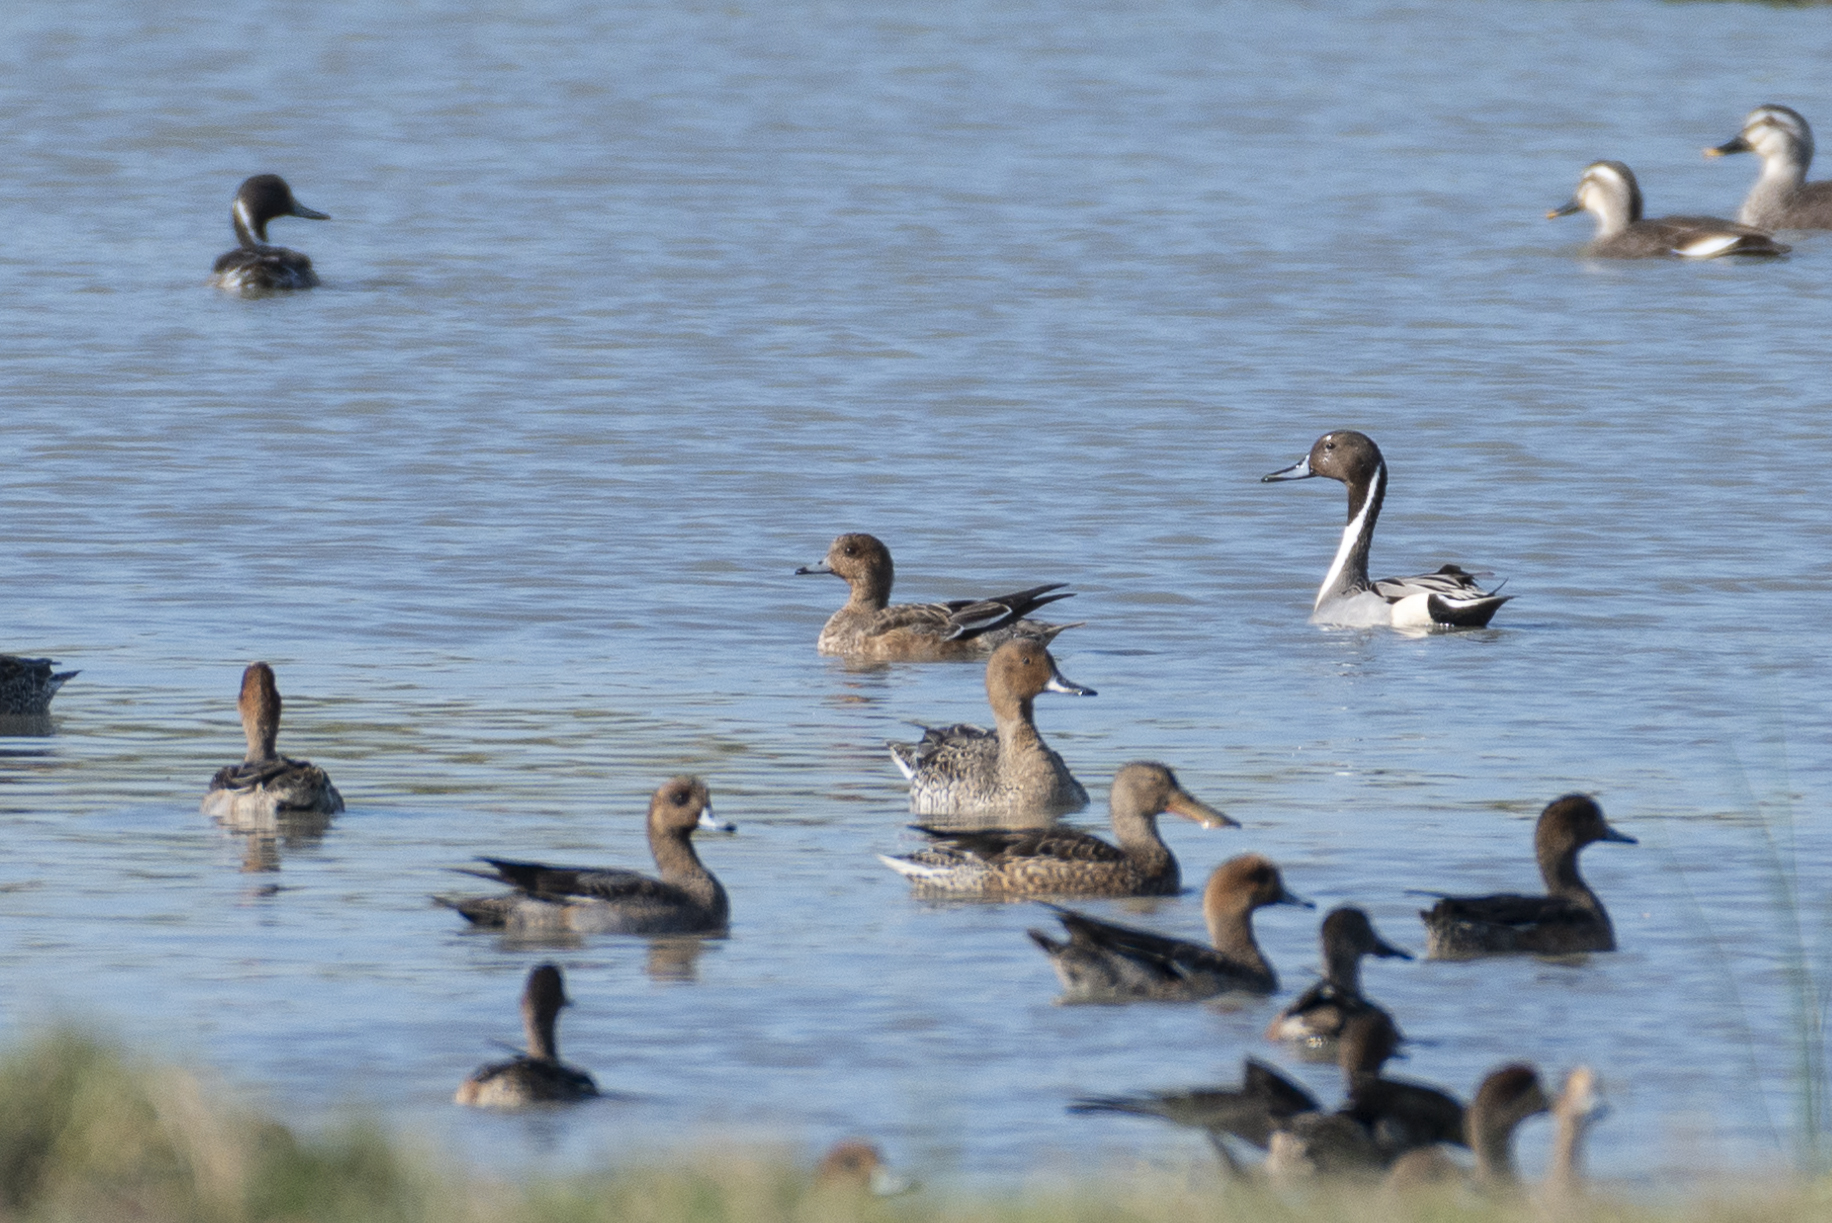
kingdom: Animalia
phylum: Chordata
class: Aves
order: Anseriformes
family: Anatidae
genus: Anas
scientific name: Anas acuta
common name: Northern pintail
